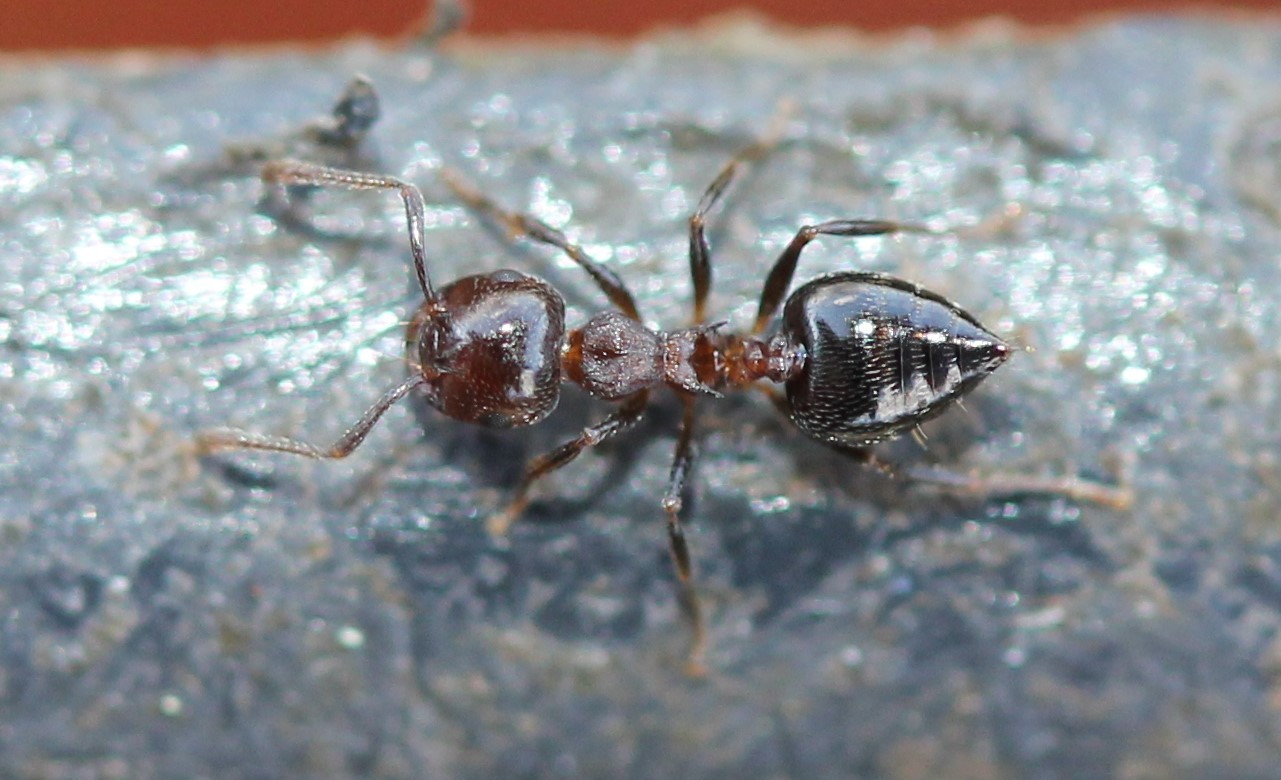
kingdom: Animalia
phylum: Arthropoda
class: Insecta
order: Hymenoptera
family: Formicidae
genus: Crematogaster
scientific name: Crematogaster cerasi
